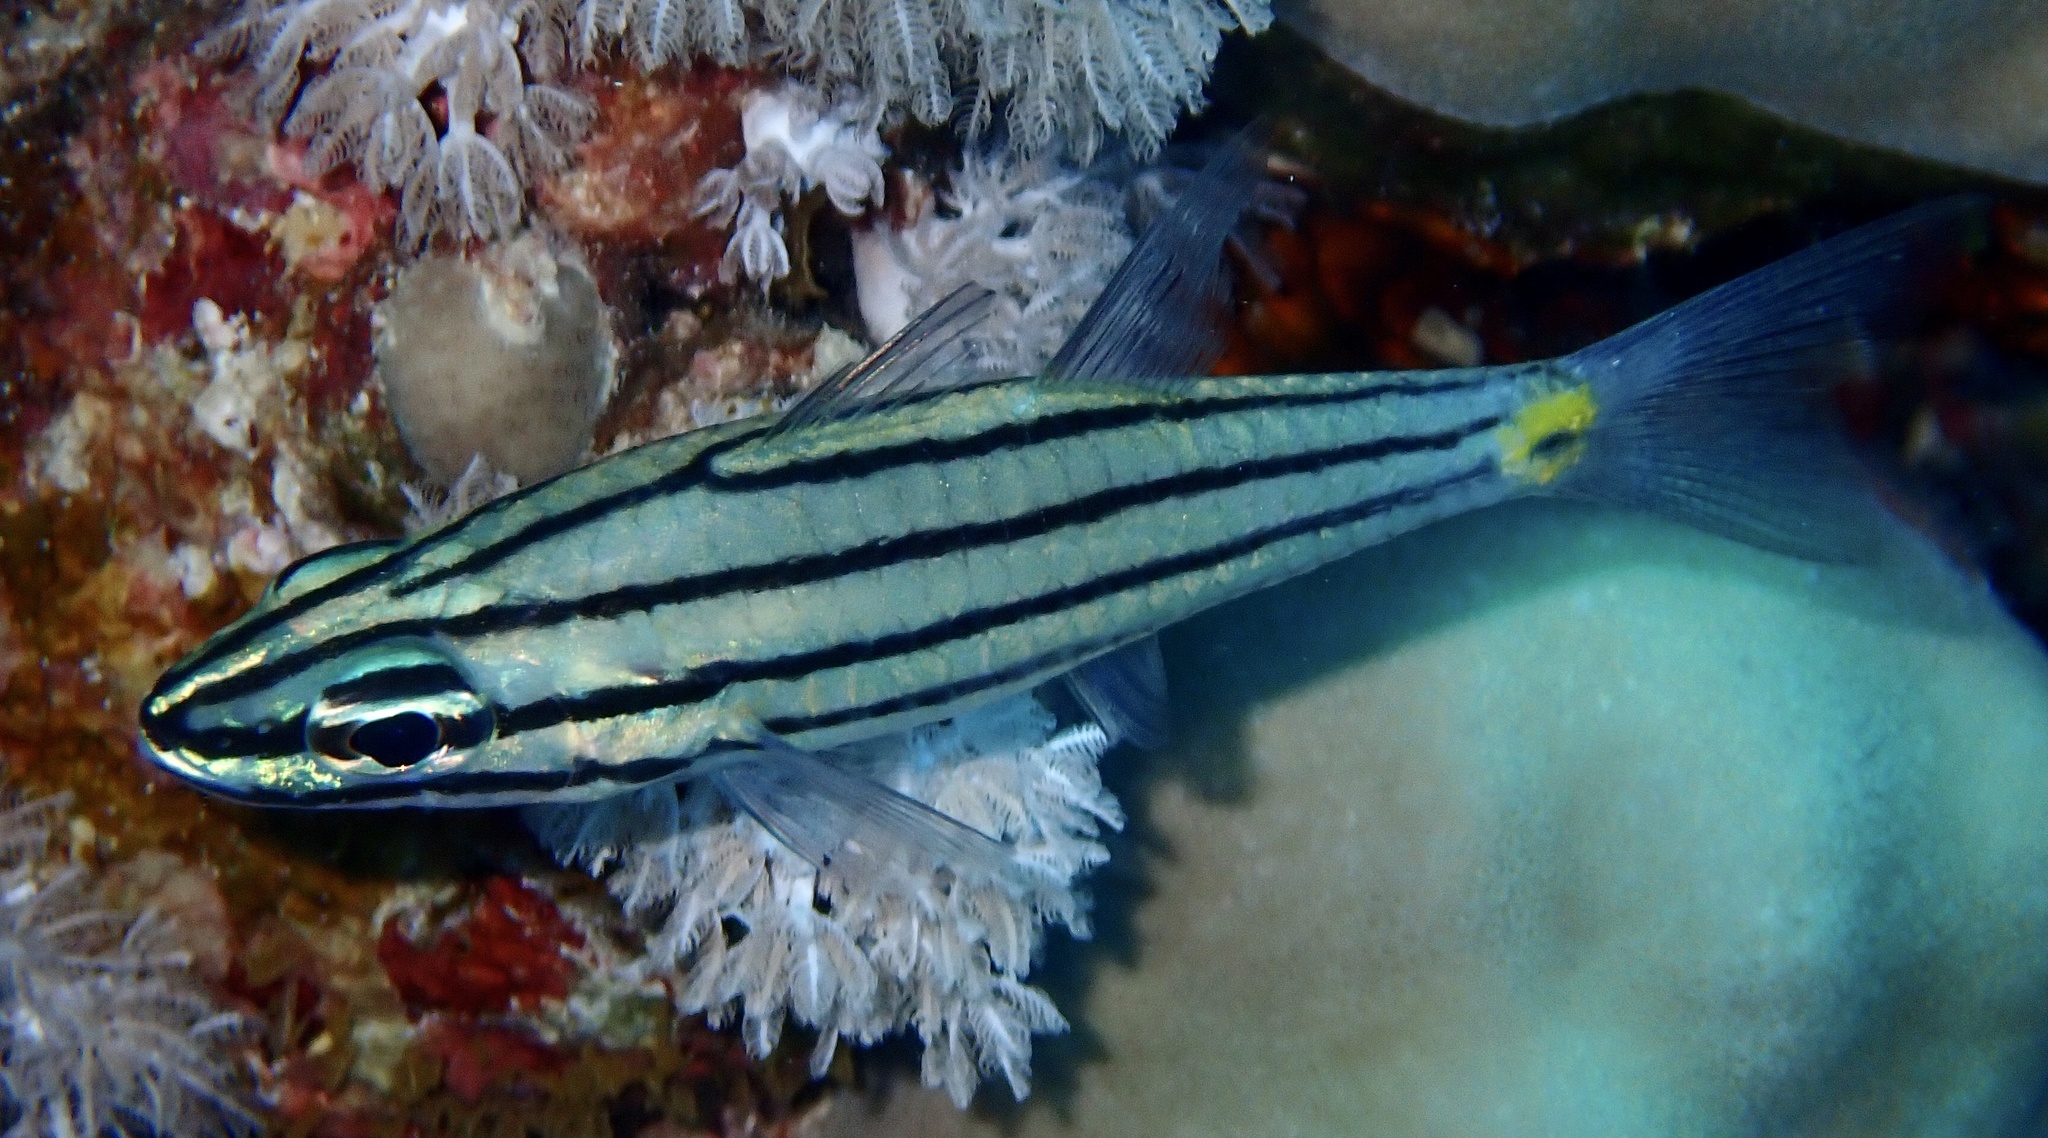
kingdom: Animalia
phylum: Chordata
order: Perciformes
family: Apogonidae
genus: Cheilodipterus
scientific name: Cheilodipterus quinquelineatus
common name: Five-lined cardinalfish
